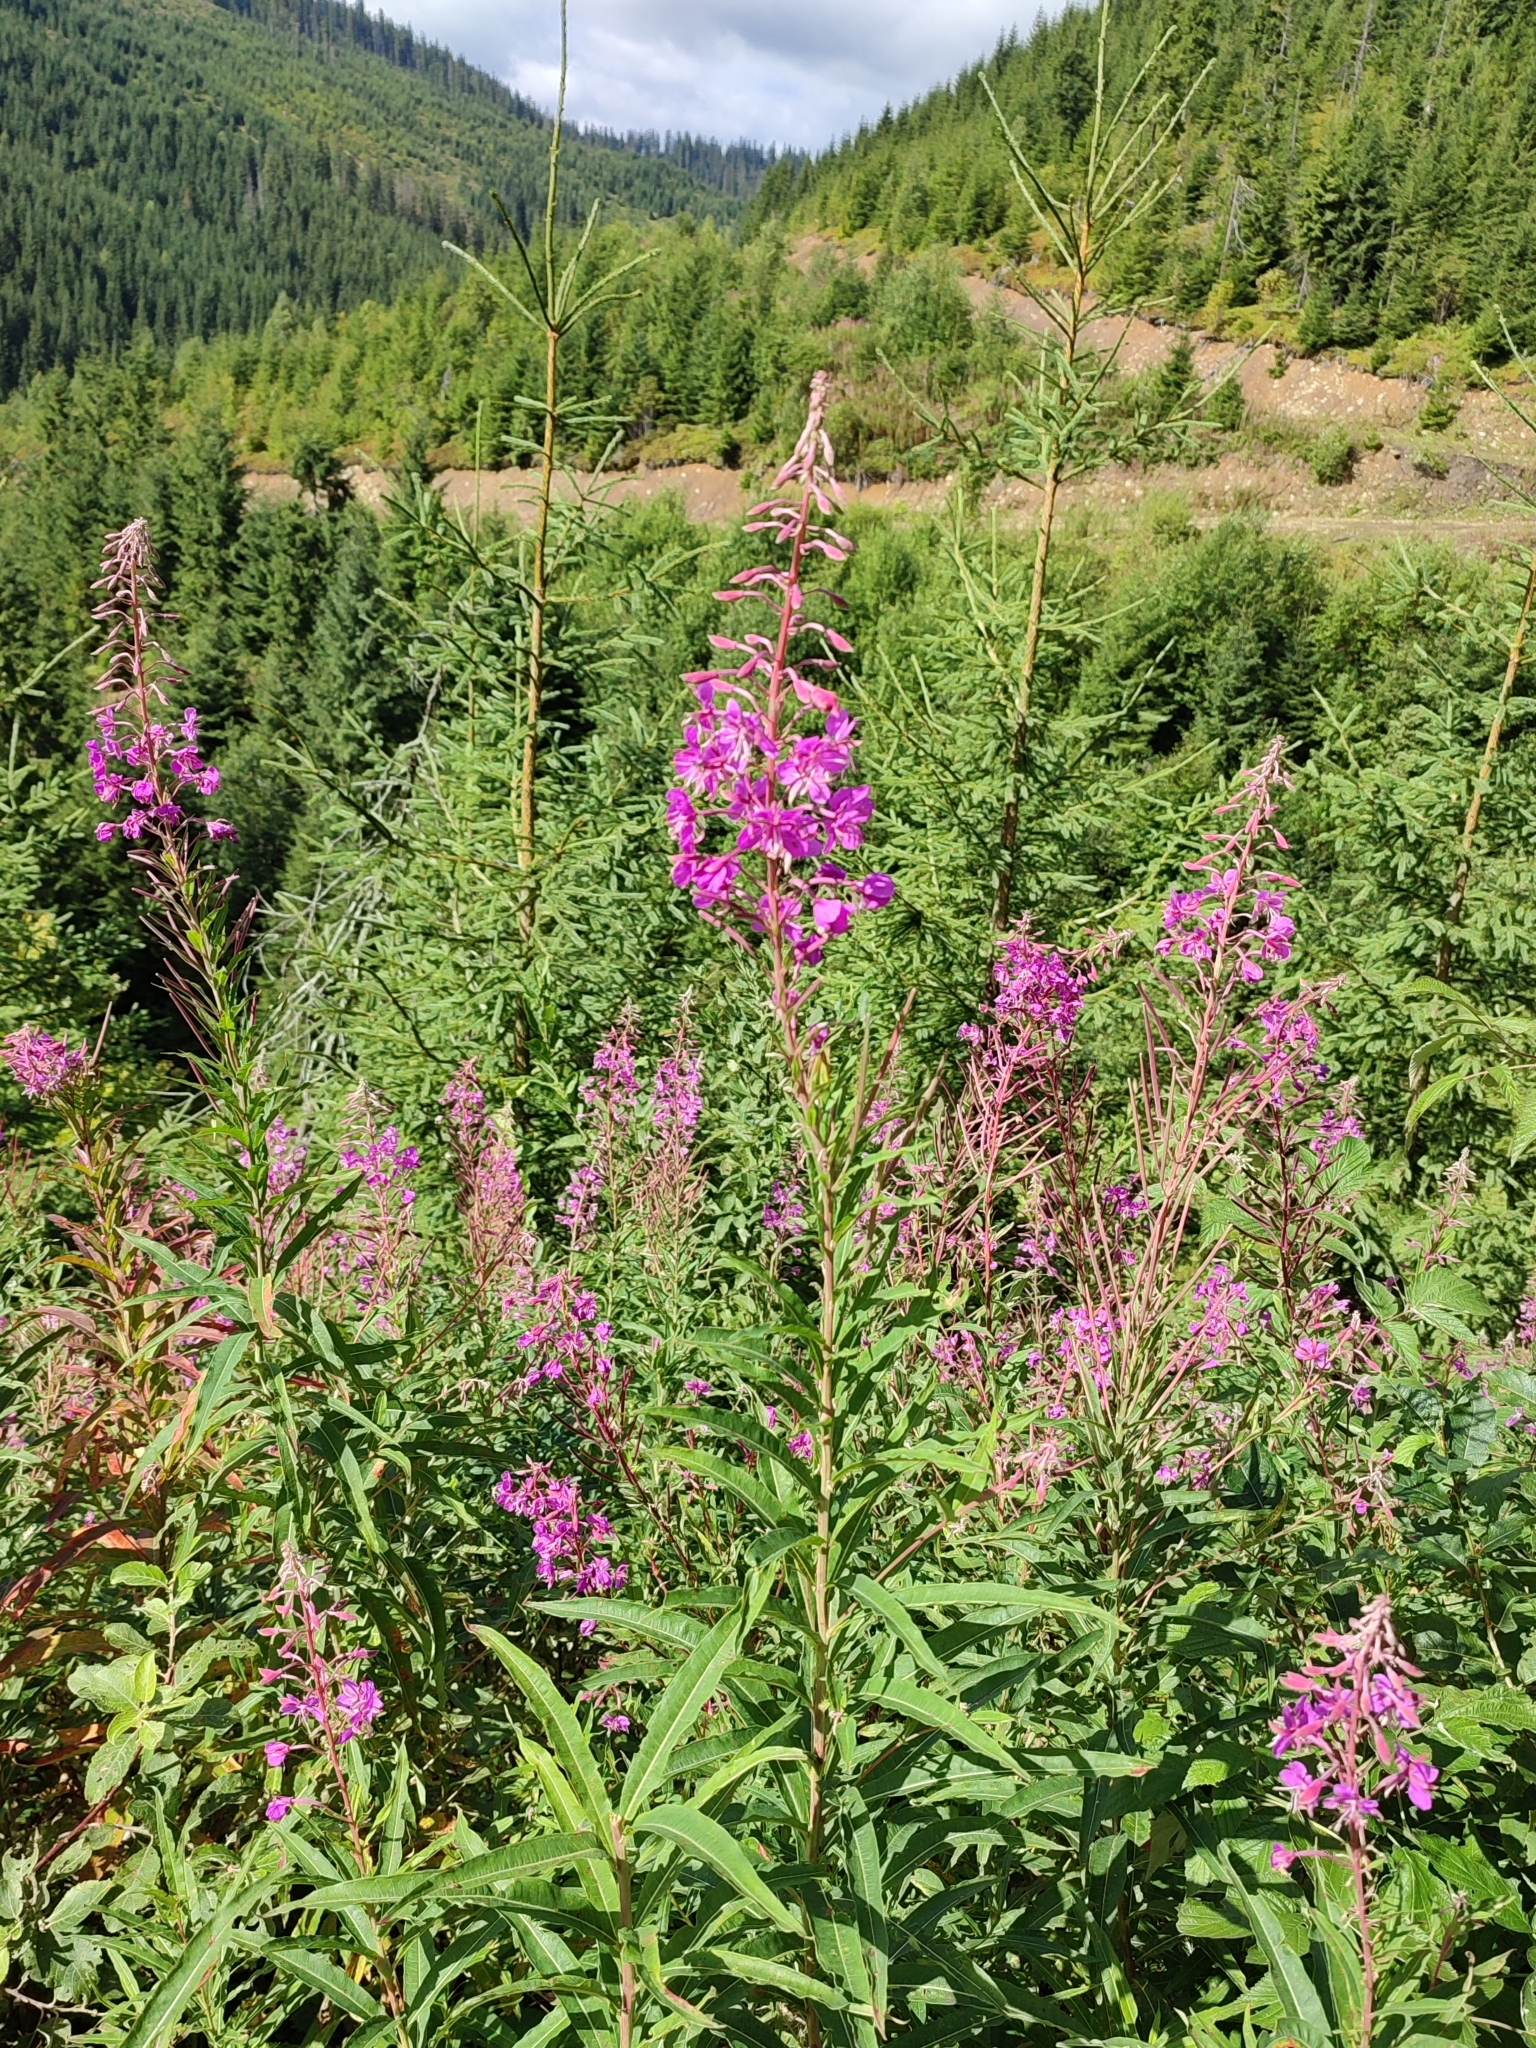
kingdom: Plantae
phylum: Tracheophyta
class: Magnoliopsida
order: Myrtales
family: Onagraceae
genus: Chamaenerion
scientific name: Chamaenerion angustifolium
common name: Fireweed
